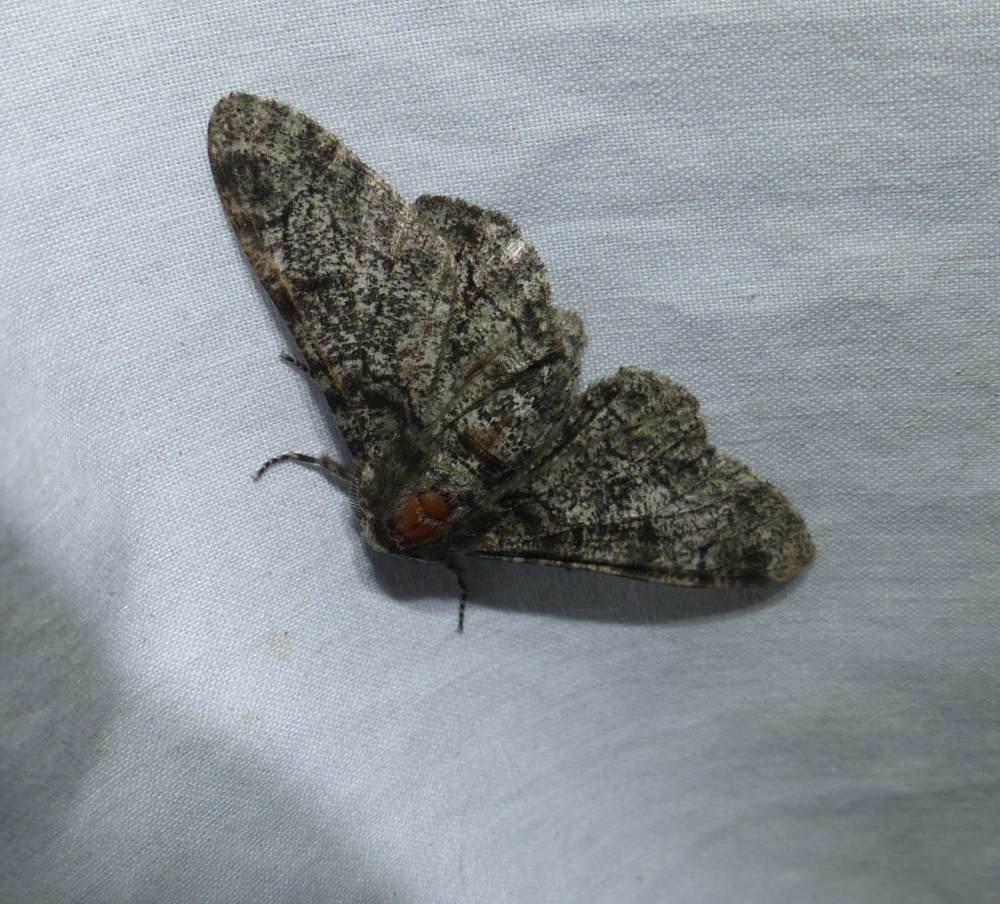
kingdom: Animalia
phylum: Arthropoda
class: Insecta
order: Lepidoptera
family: Geometridae
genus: Biston
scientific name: Biston betularia
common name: Peppered moth
